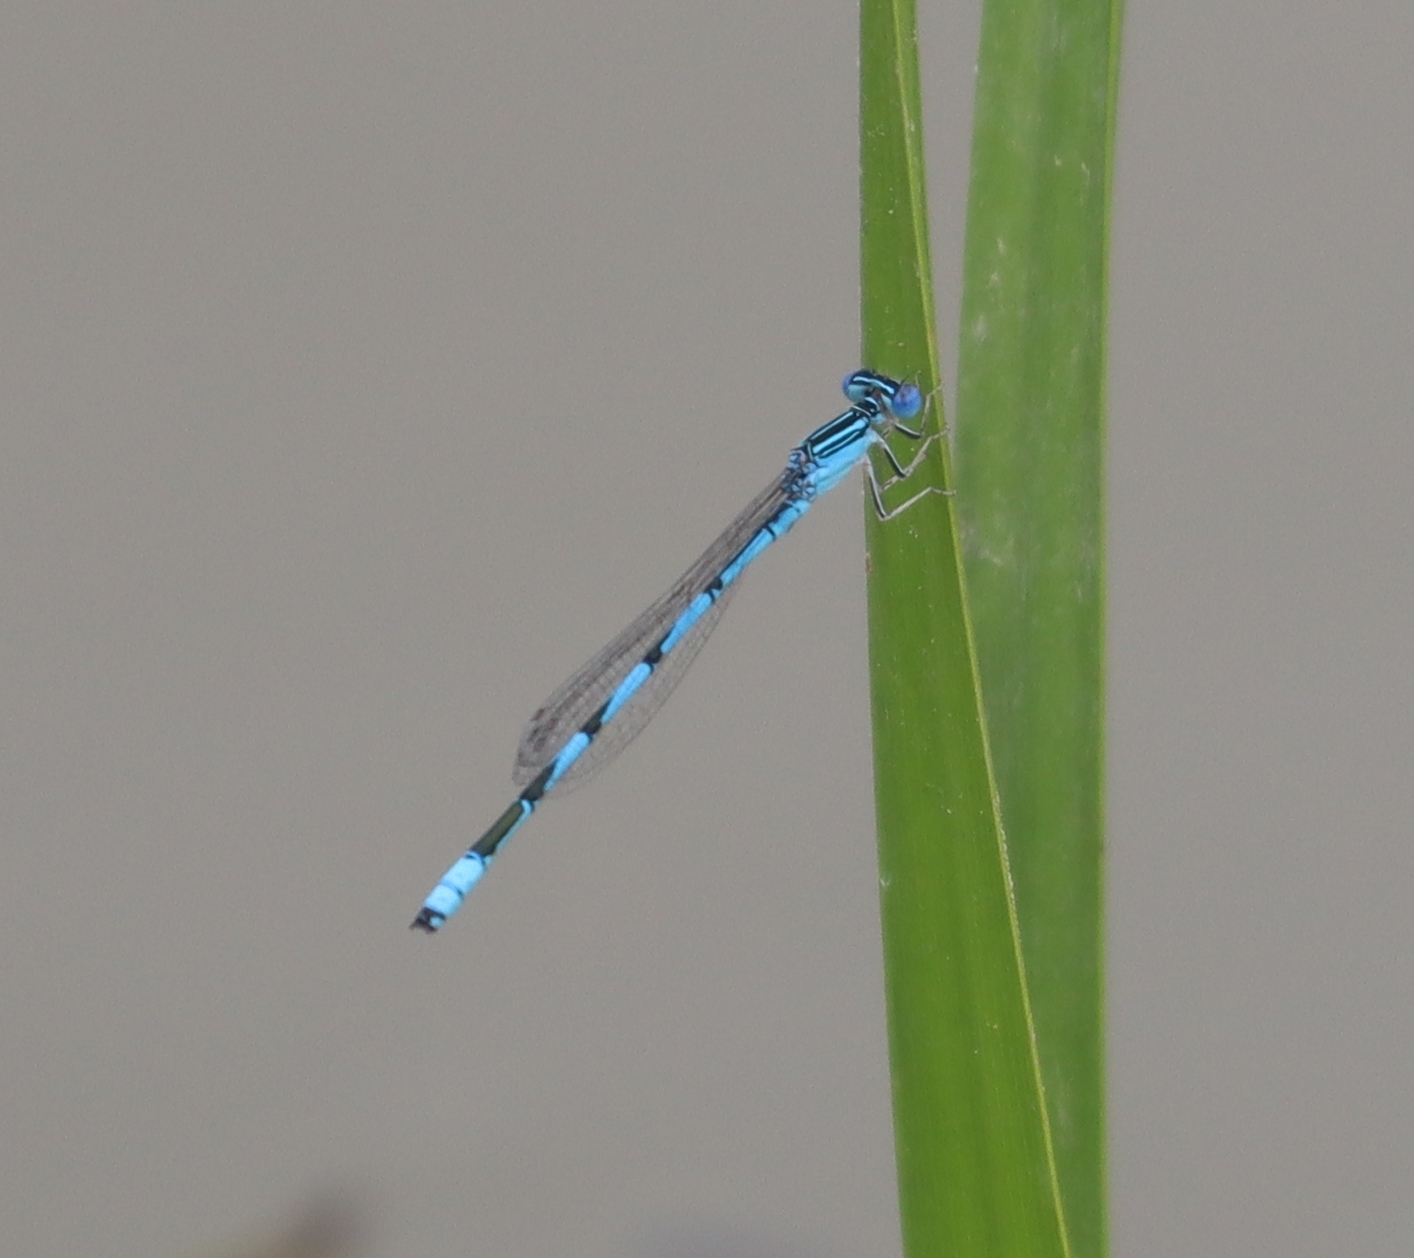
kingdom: Animalia
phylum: Arthropoda
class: Insecta
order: Odonata
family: Coenagrionidae
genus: Enallagma
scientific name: Enallagma basidens
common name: Double-striped bluet
